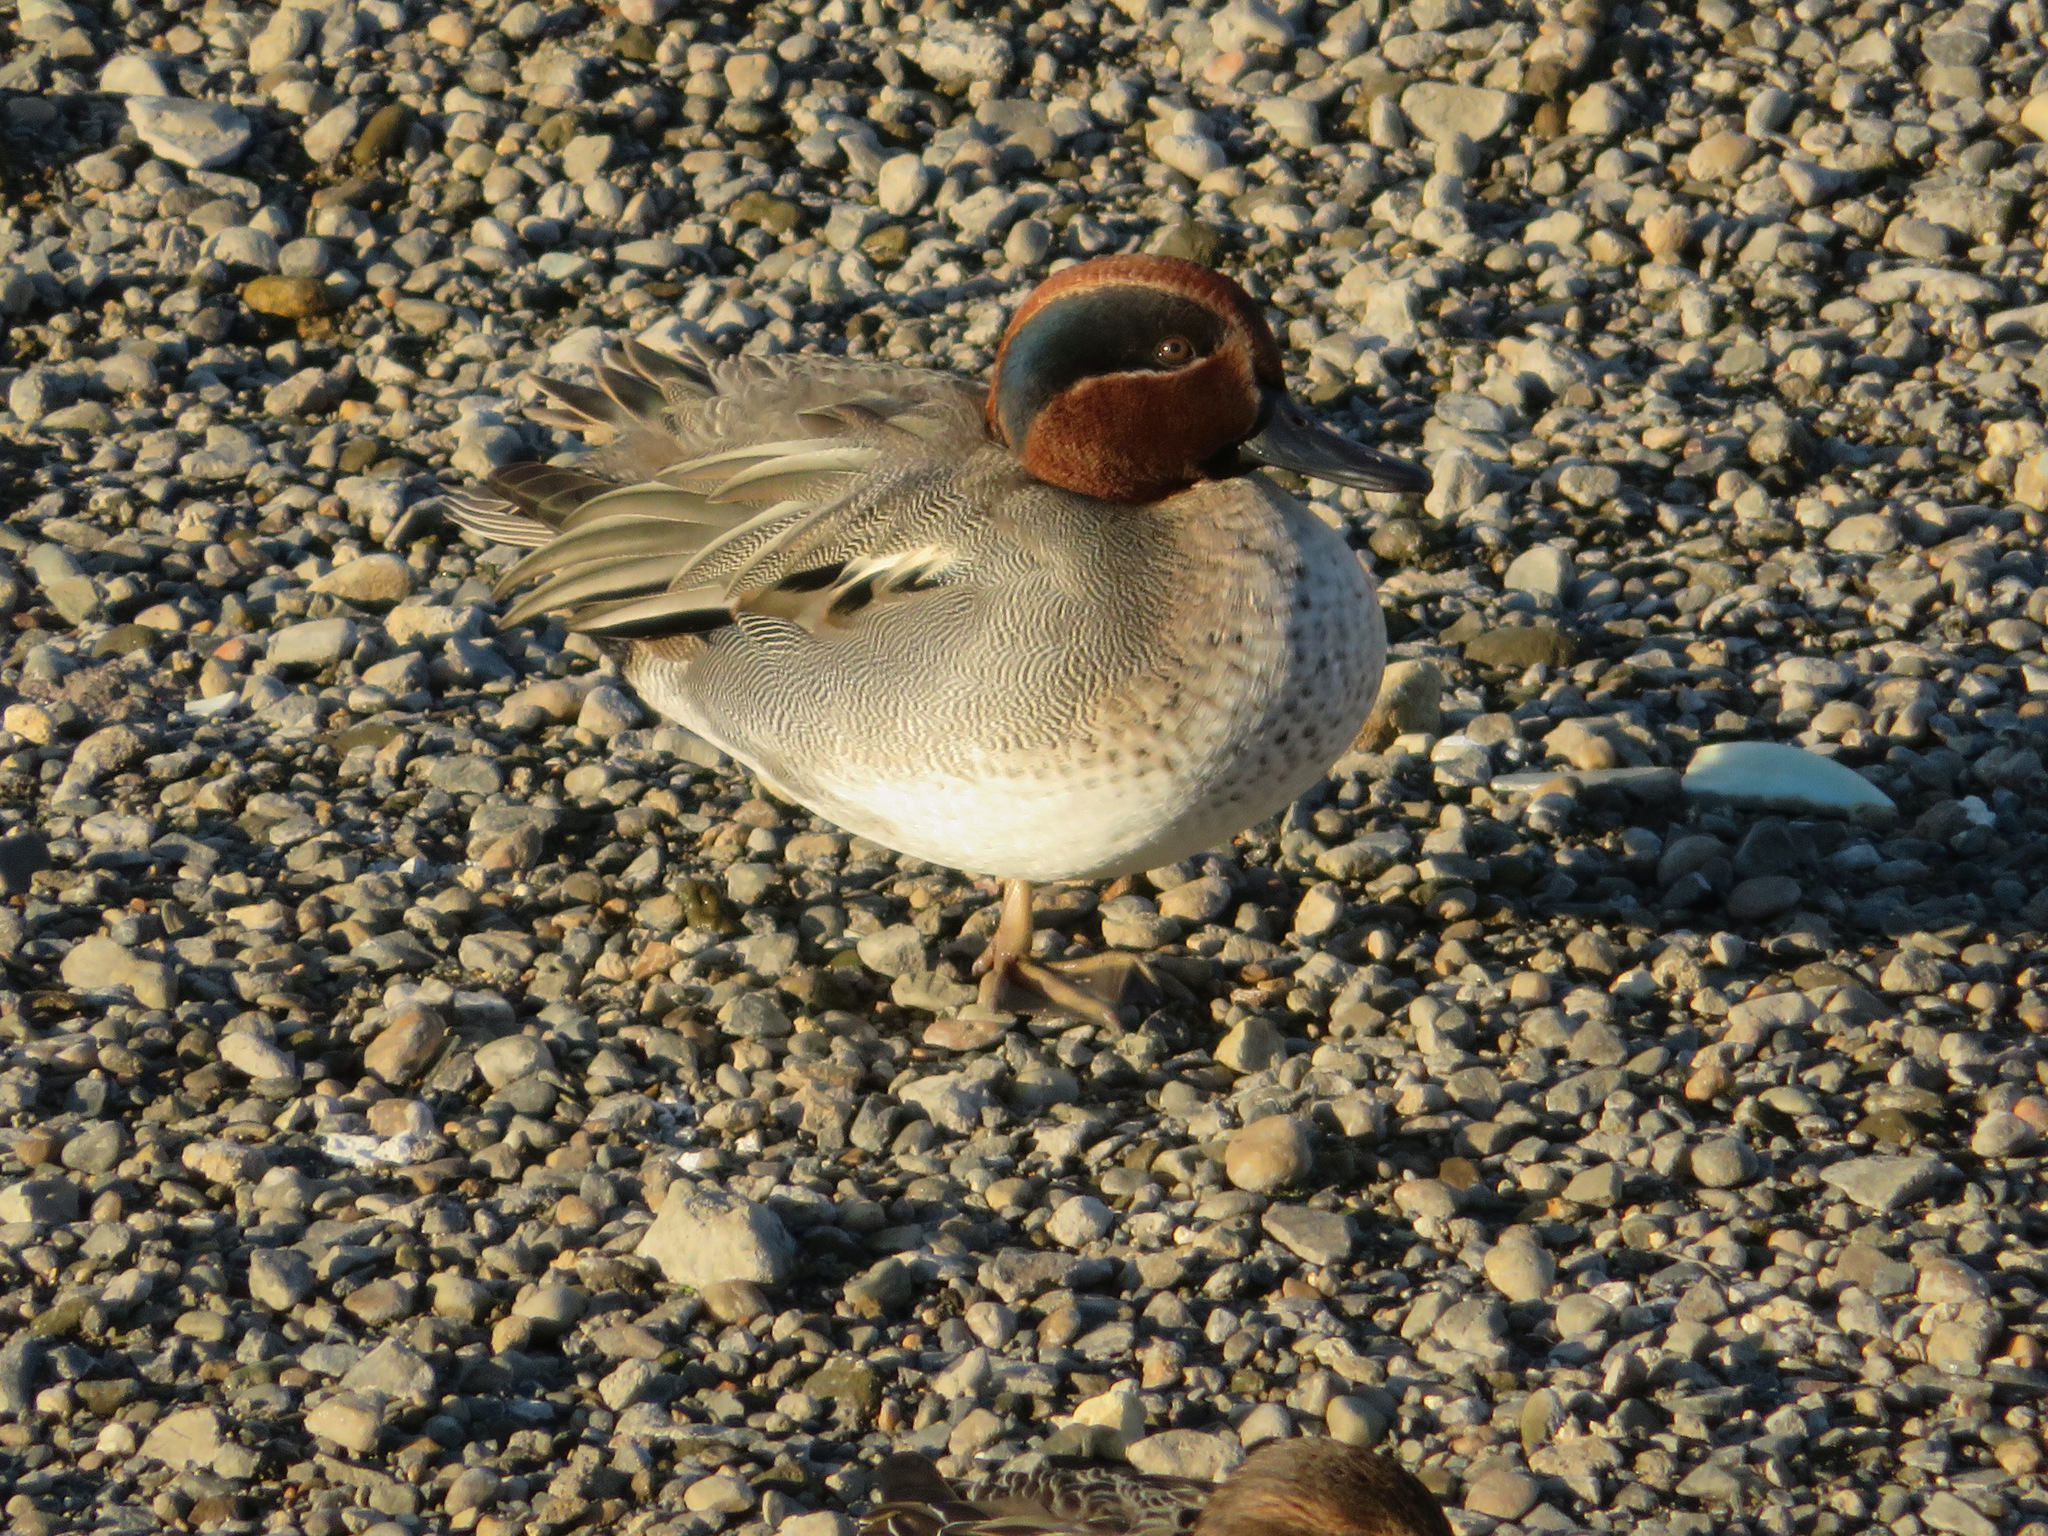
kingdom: Animalia
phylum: Chordata
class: Aves
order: Anseriformes
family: Anatidae
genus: Anas
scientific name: Anas crecca
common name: Eurasian teal
